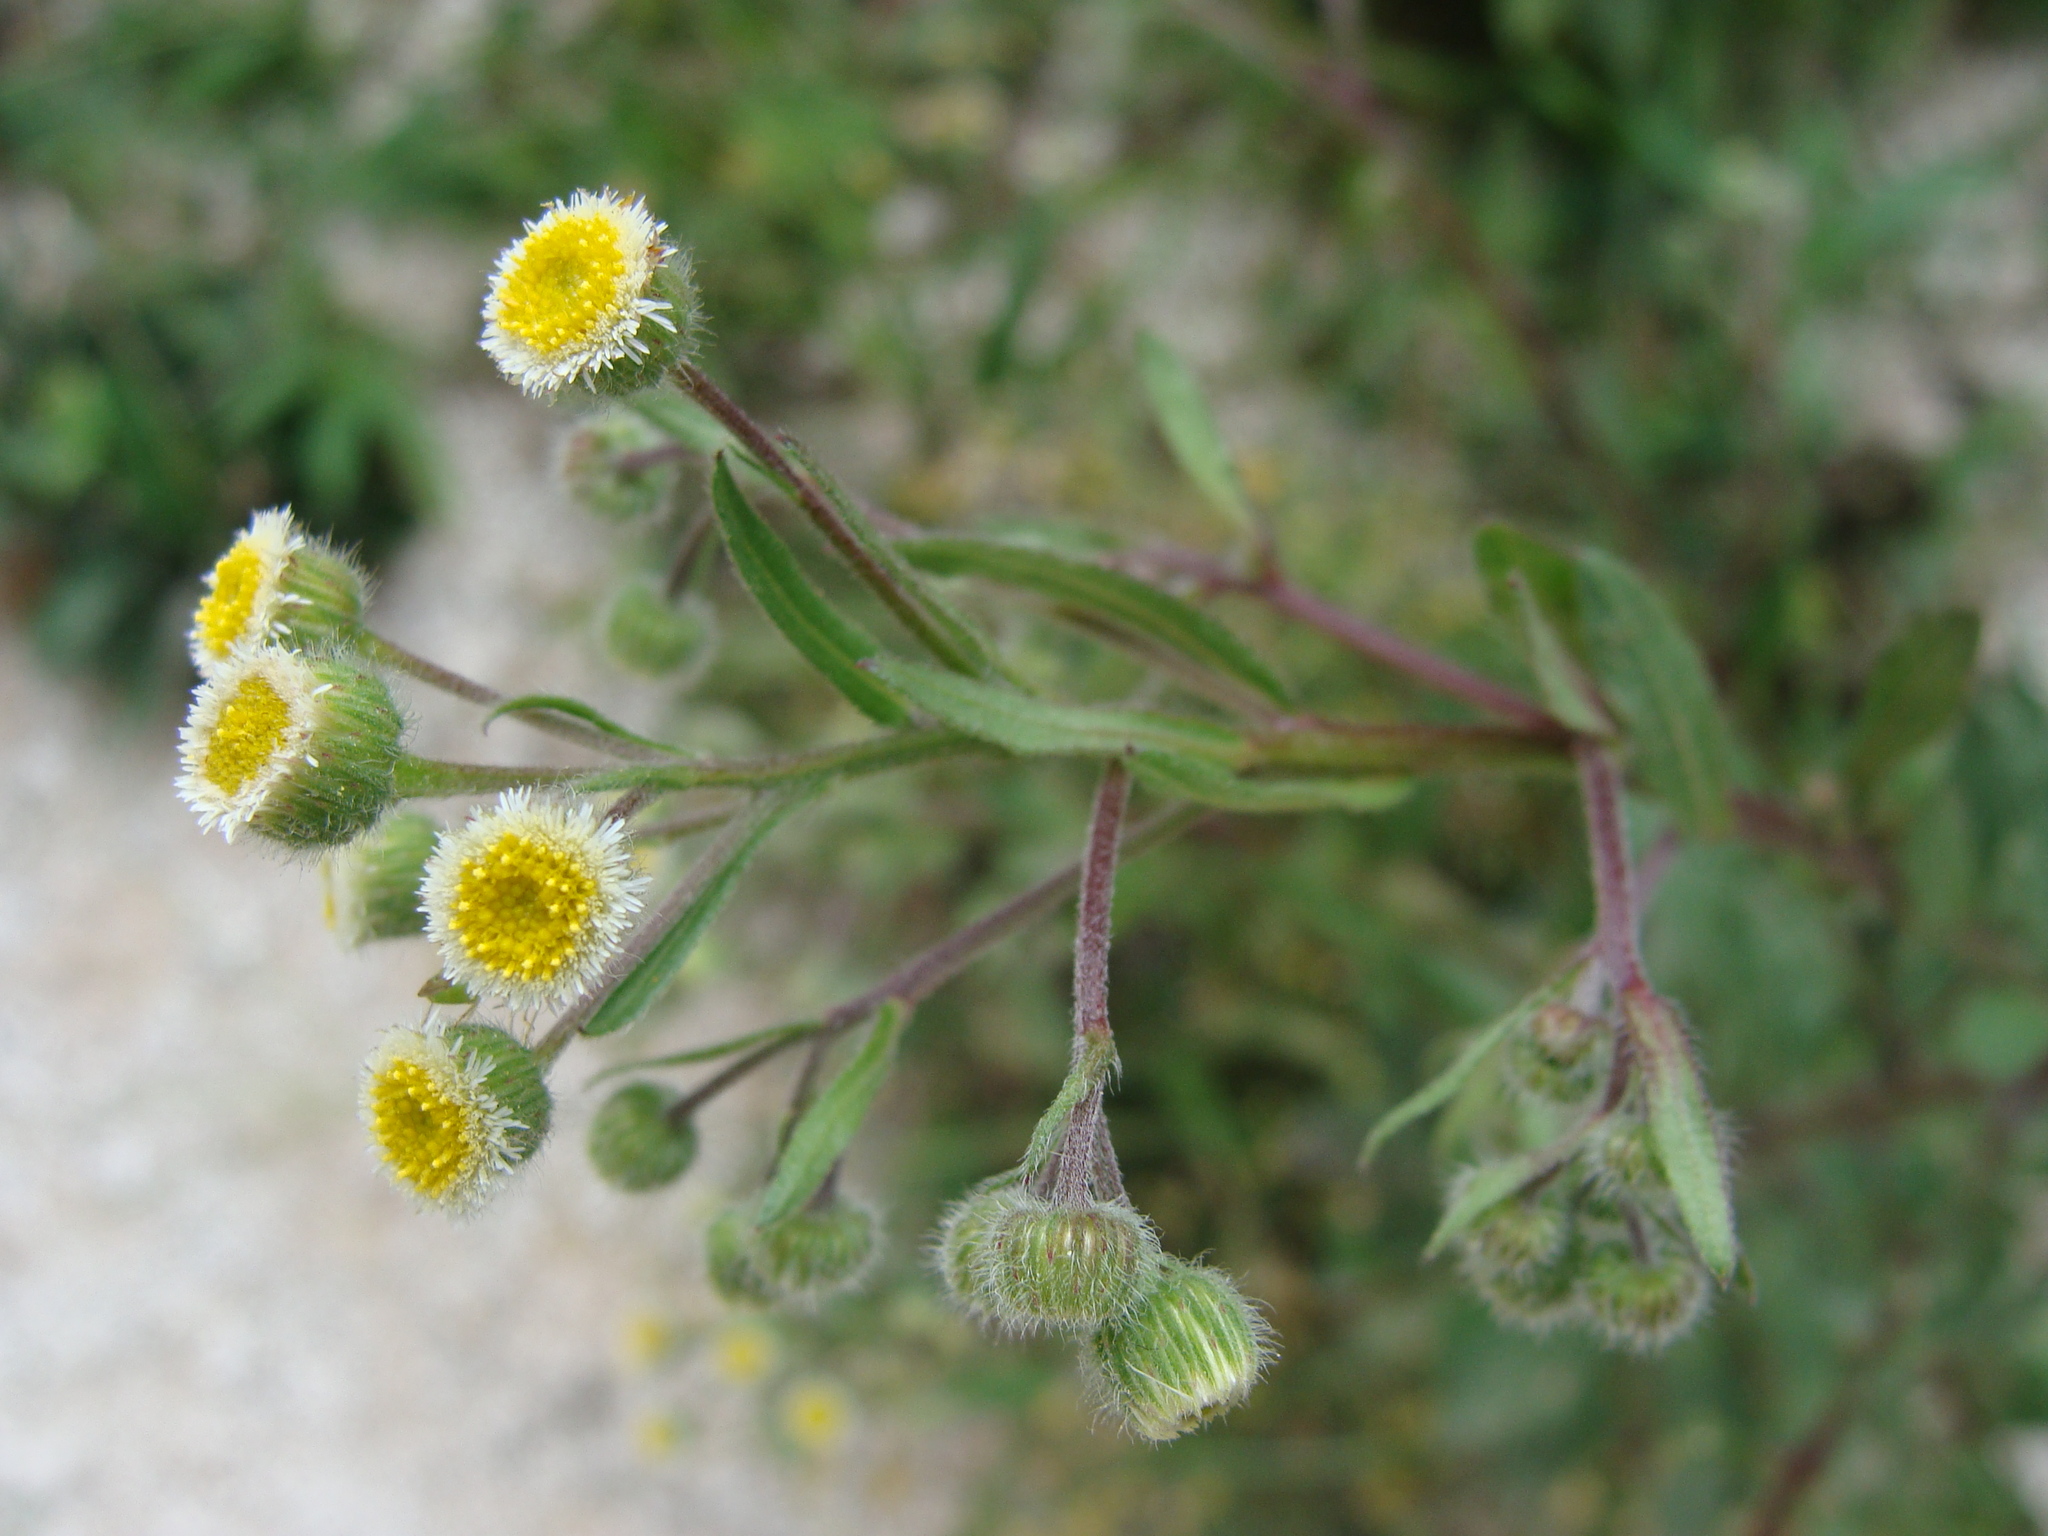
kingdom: Plantae
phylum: Tracheophyta
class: Magnoliopsida
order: Asterales
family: Asteraceae
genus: Erigeron
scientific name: Erigeron laevigatus
